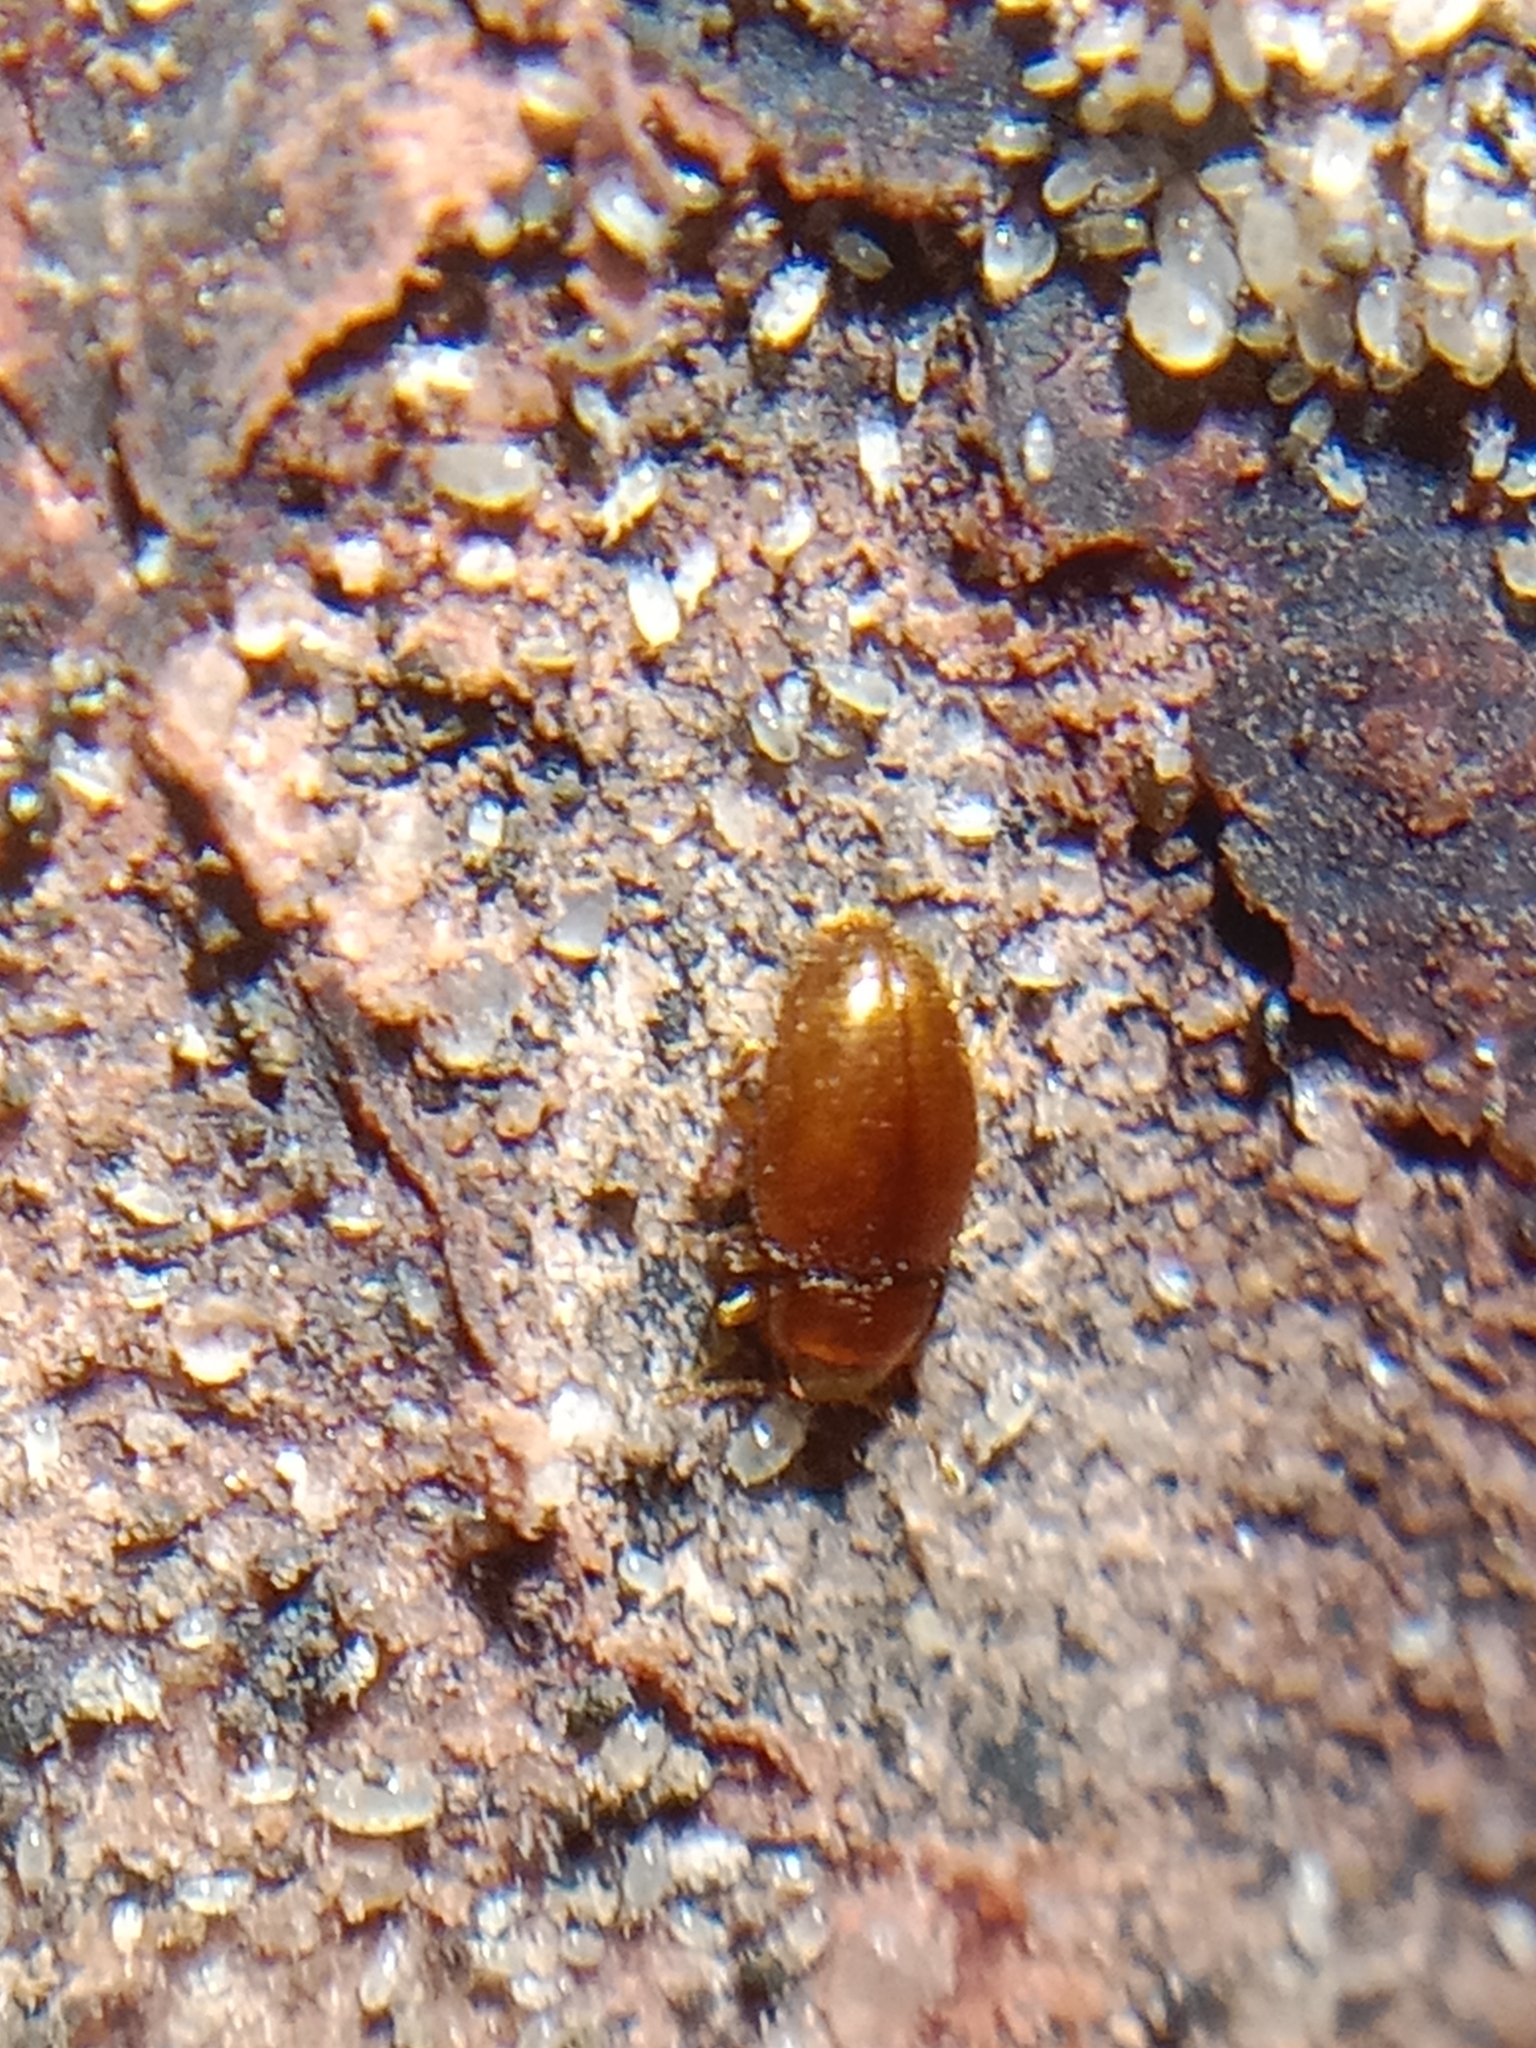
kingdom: Animalia
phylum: Arthropoda
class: Insecta
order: Coleoptera
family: Mycetaeidae
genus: Mycetaea
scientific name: Mycetaea subterranea
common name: Handsome fungus beetle
